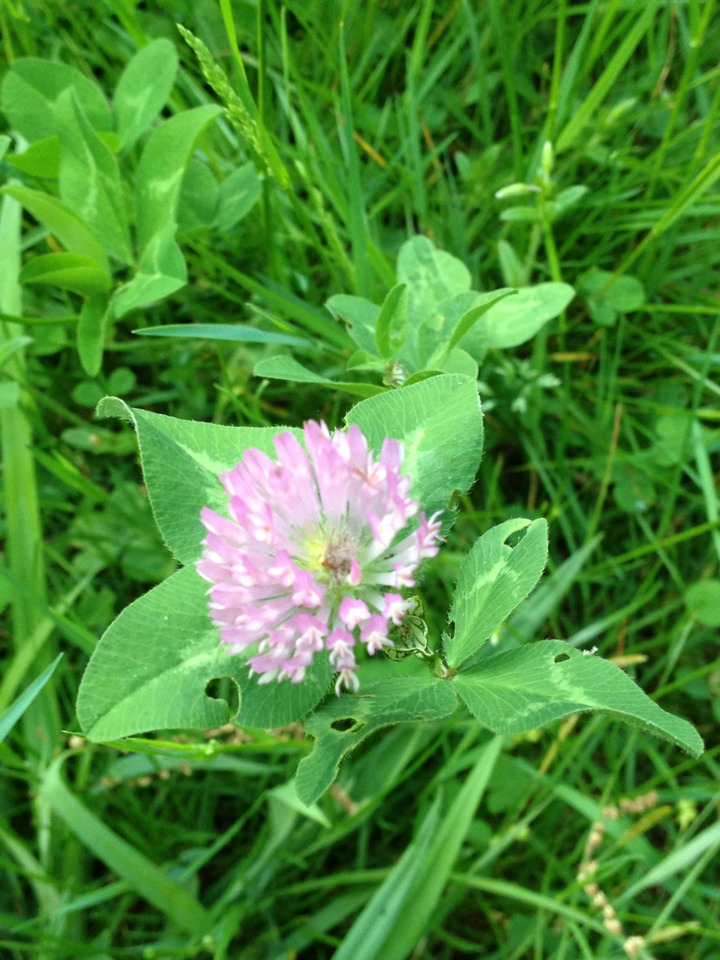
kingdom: Plantae
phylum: Tracheophyta
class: Magnoliopsida
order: Fabales
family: Fabaceae
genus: Trifolium
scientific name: Trifolium pratense
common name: Red clover
